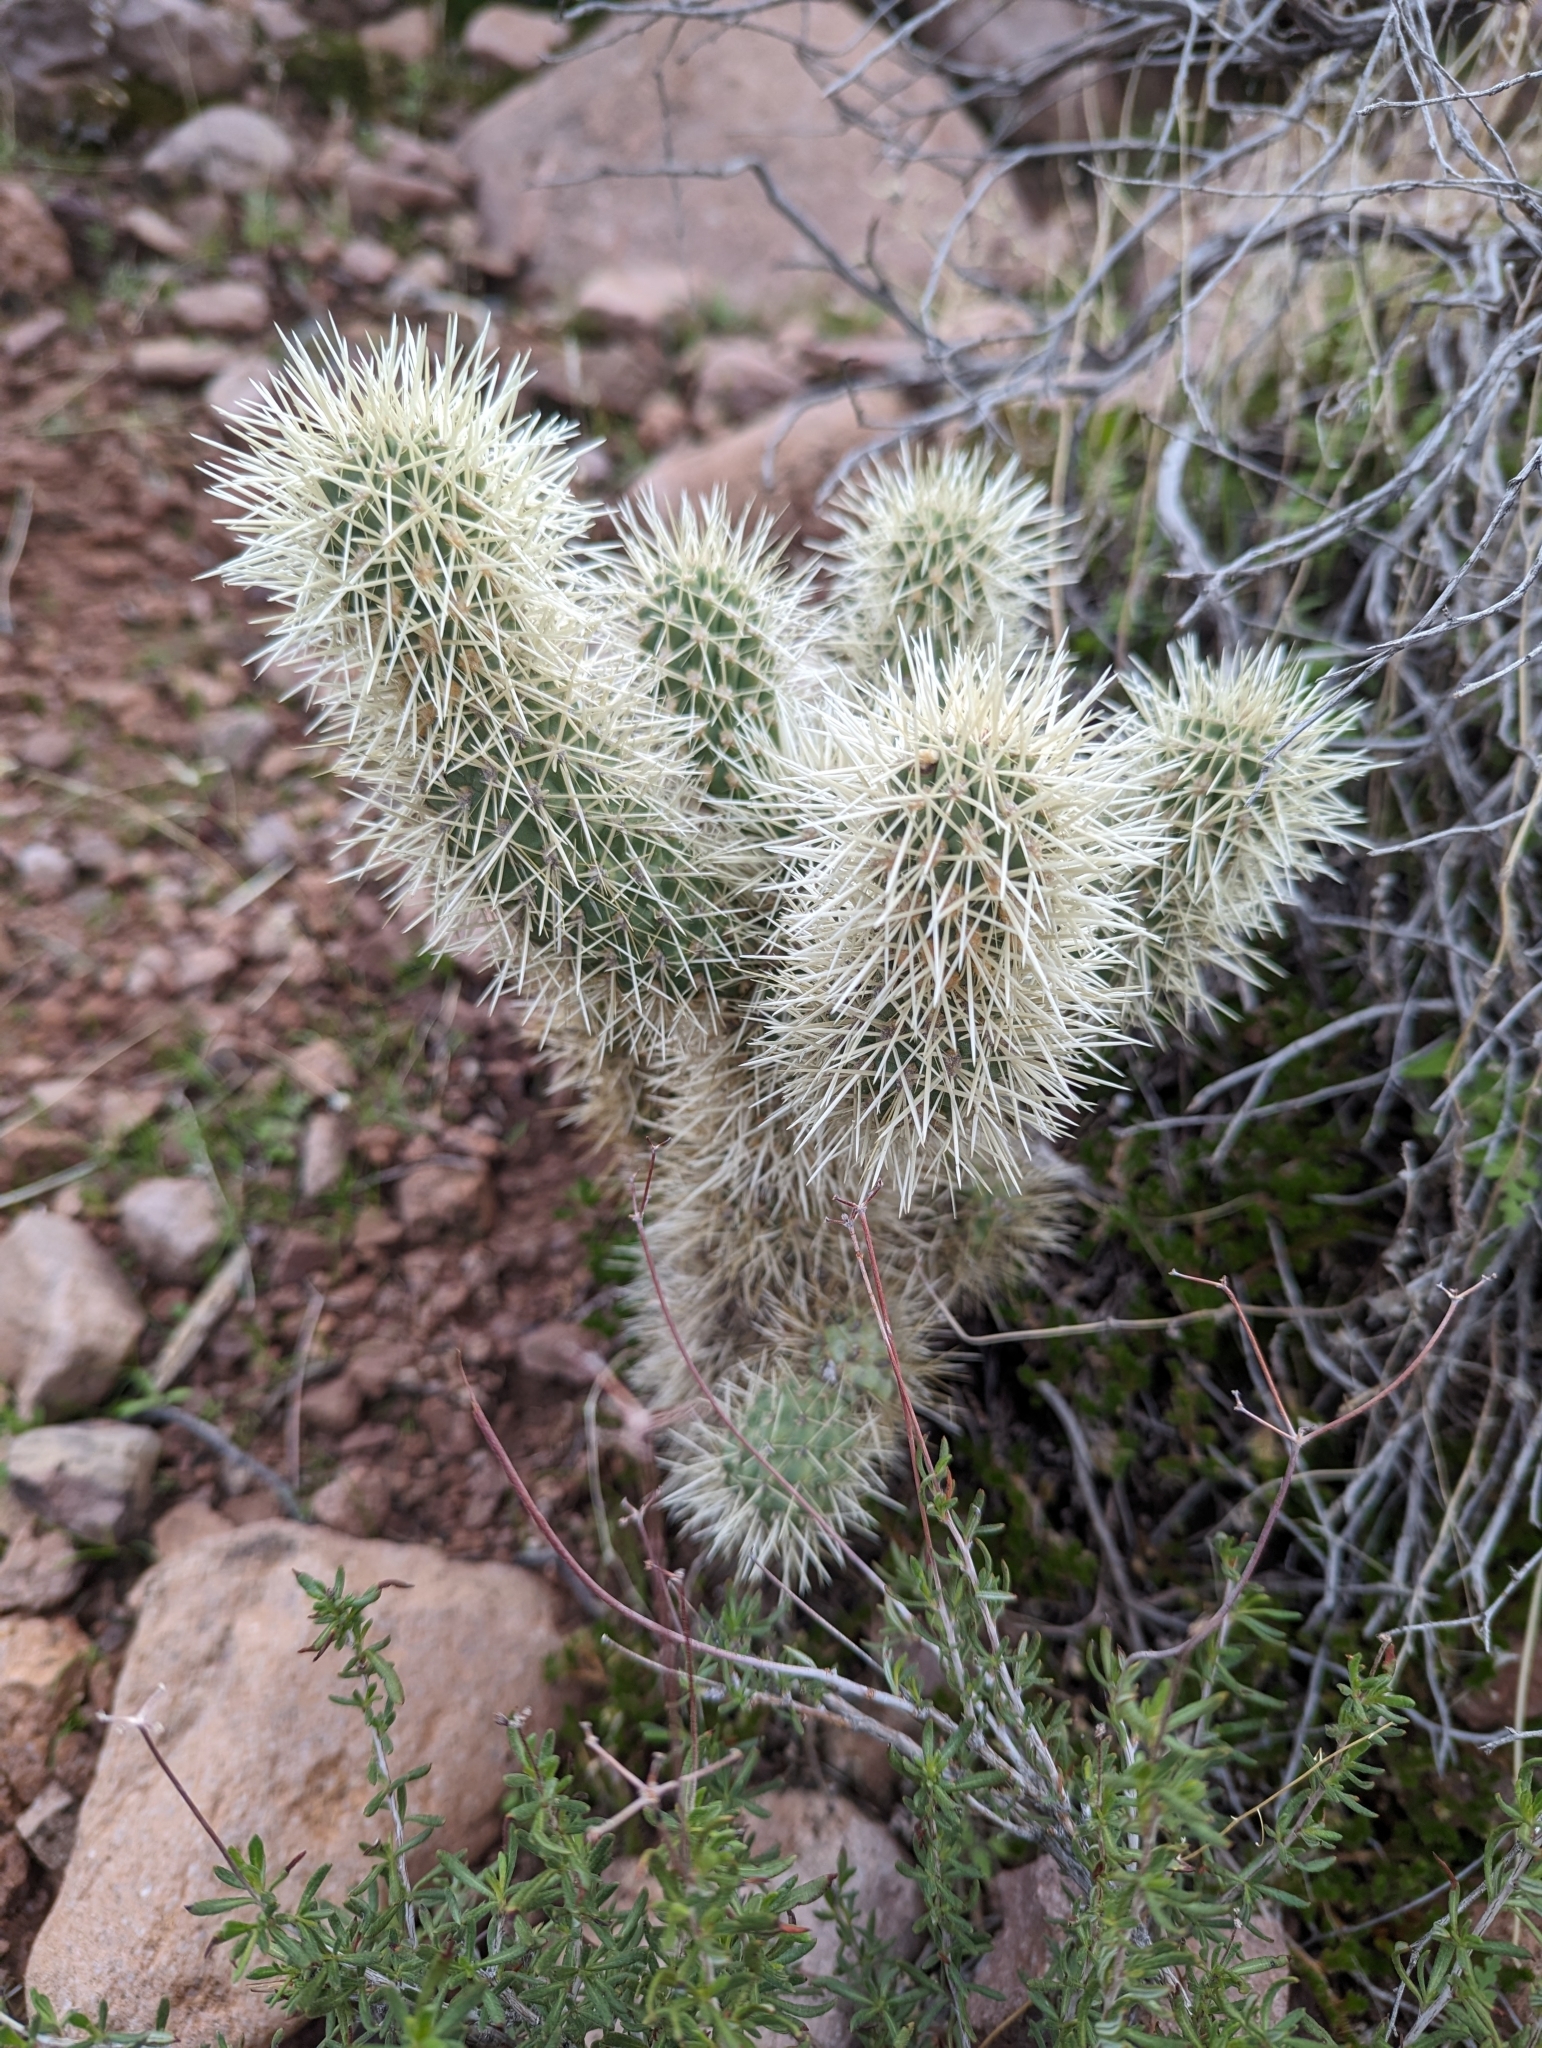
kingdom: Plantae
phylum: Tracheophyta
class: Magnoliopsida
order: Caryophyllales
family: Cactaceae
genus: Cylindropuntia
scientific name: Cylindropuntia fosbergii
